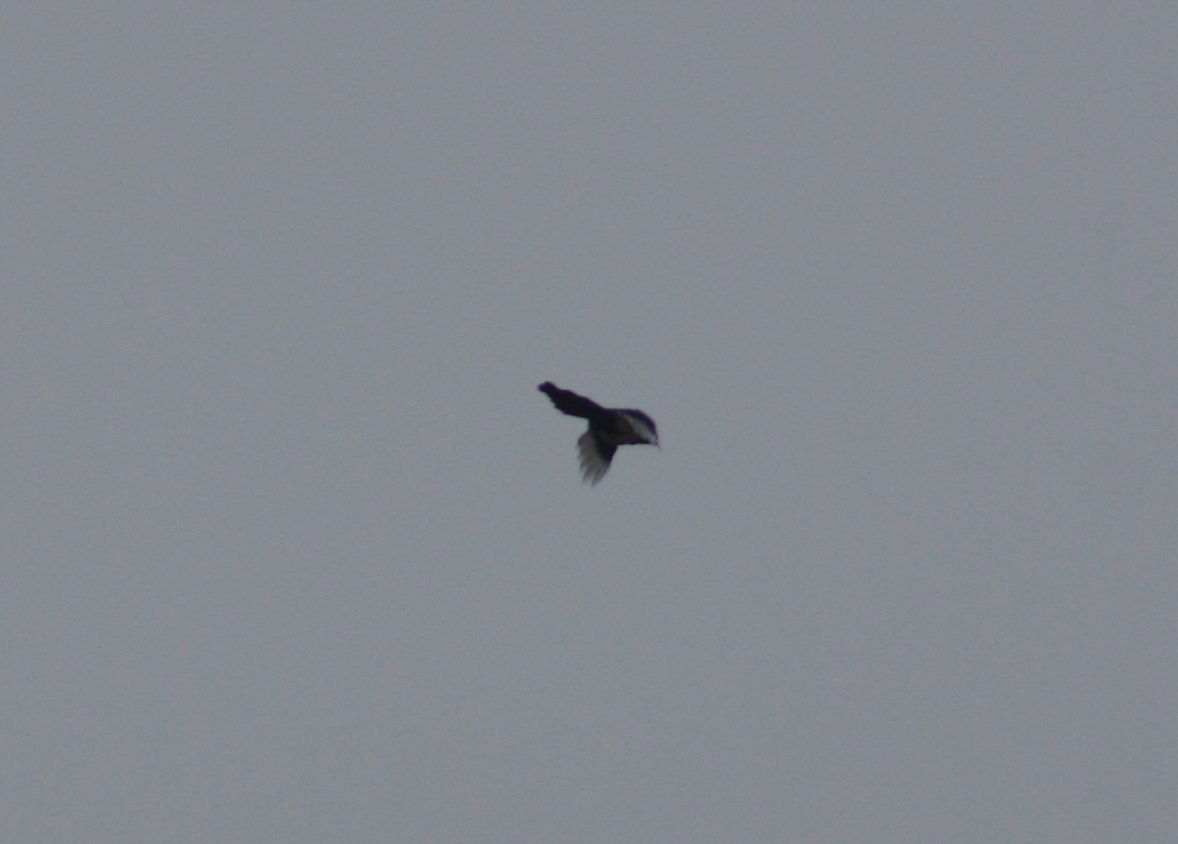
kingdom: Animalia
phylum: Chordata
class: Aves
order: Passeriformes
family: Corvidae
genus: Pica
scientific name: Pica pica
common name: Eurasian magpie
